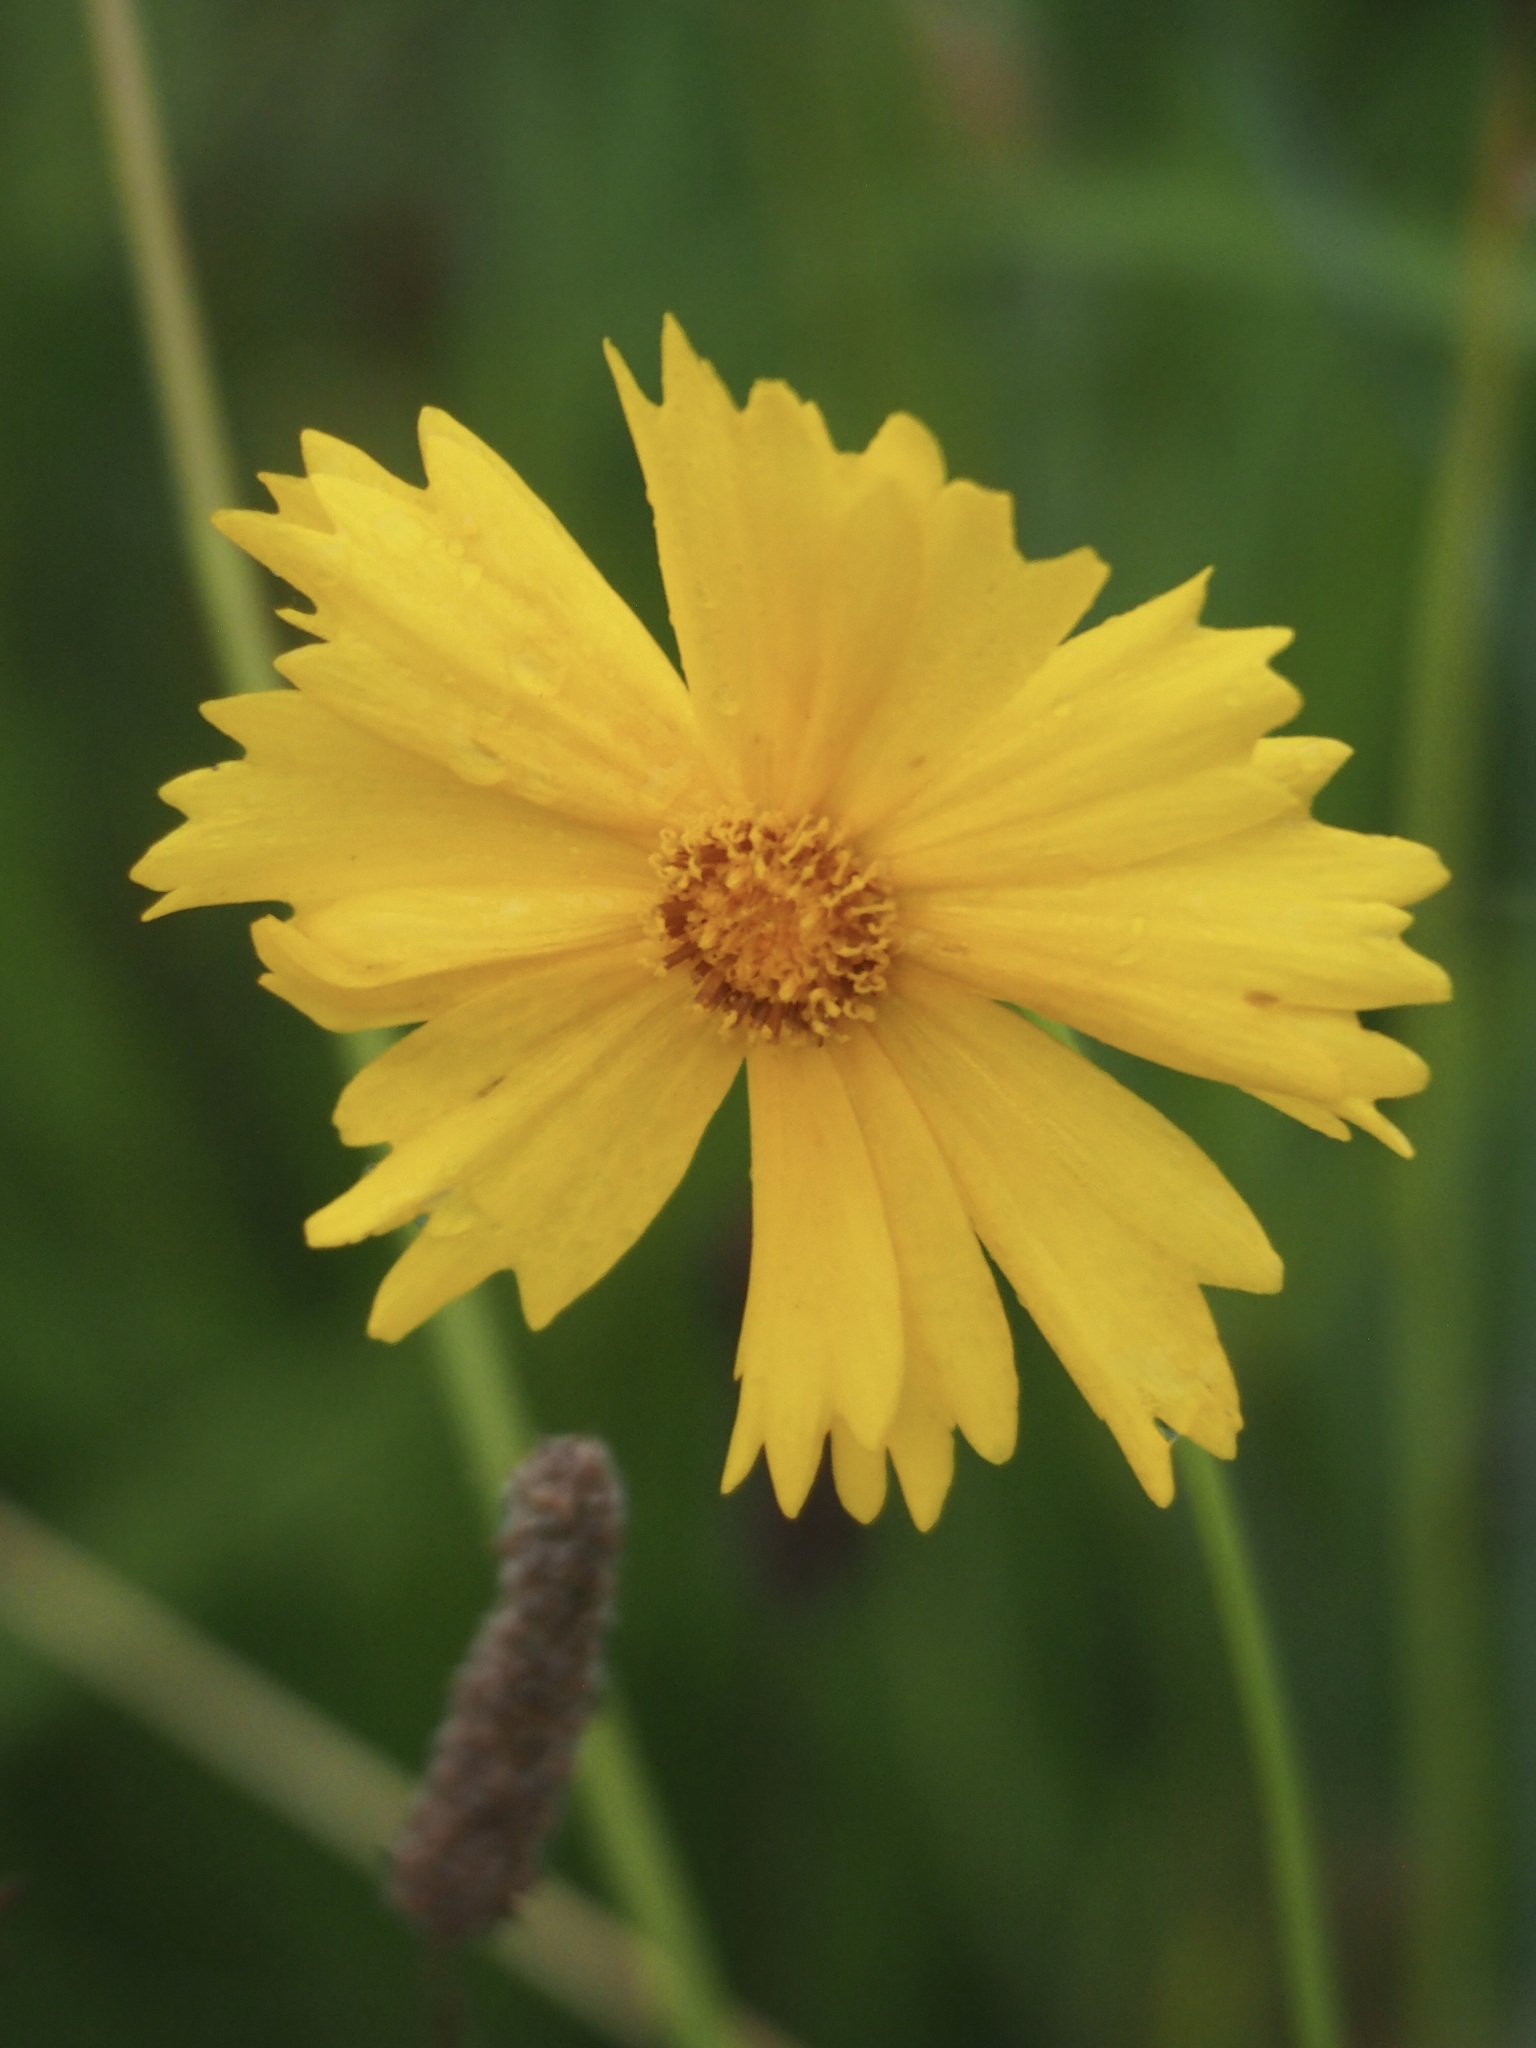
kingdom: Plantae
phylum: Tracheophyta
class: Magnoliopsida
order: Asterales
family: Asteraceae
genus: Coreopsis
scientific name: Coreopsis lanceolata
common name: Garden coreopsis
